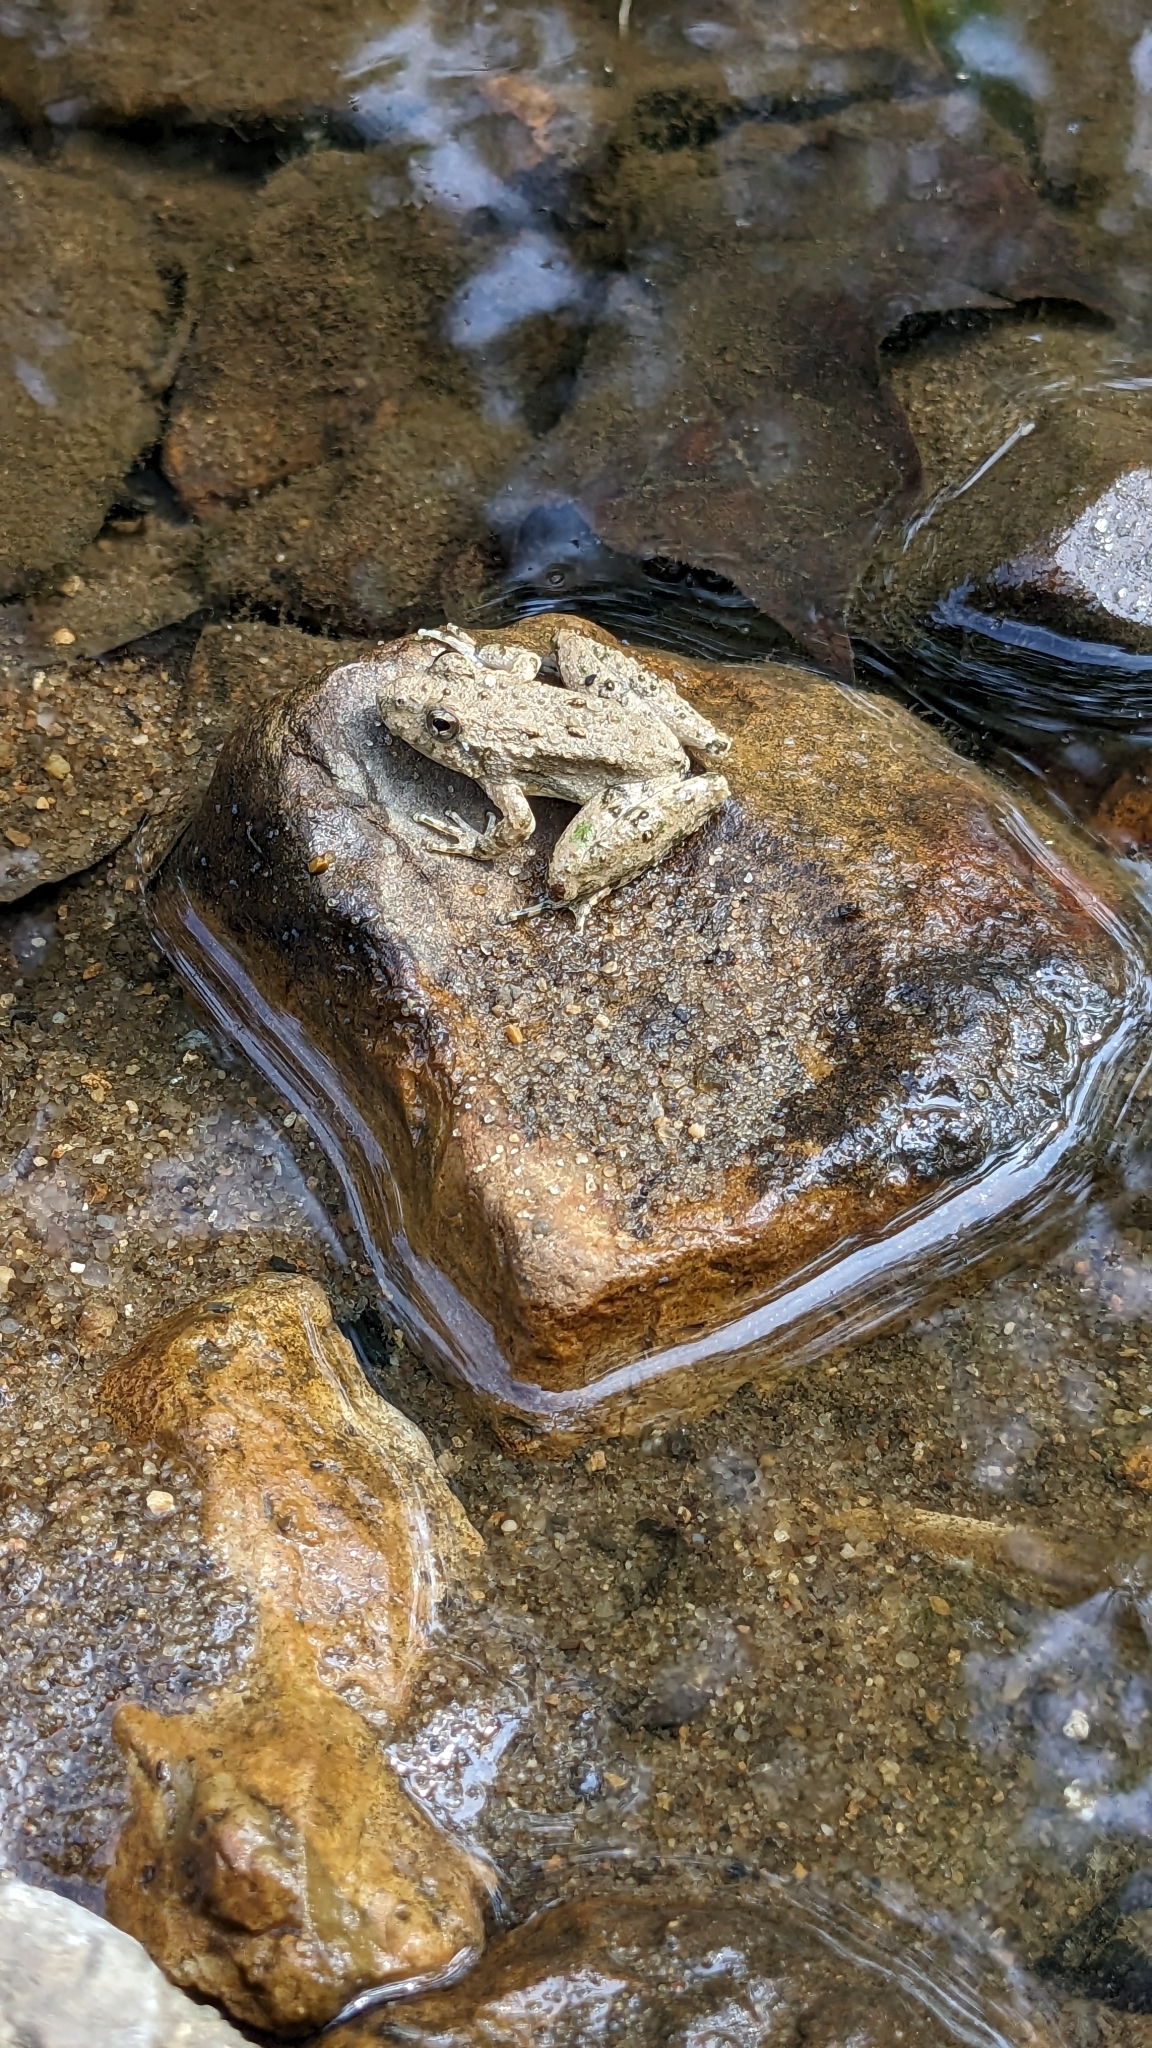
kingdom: Animalia
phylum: Chordata
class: Amphibia
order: Anura
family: Hylidae
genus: Acris
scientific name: Acris blanchardi
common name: Blanchard's cricket frog
